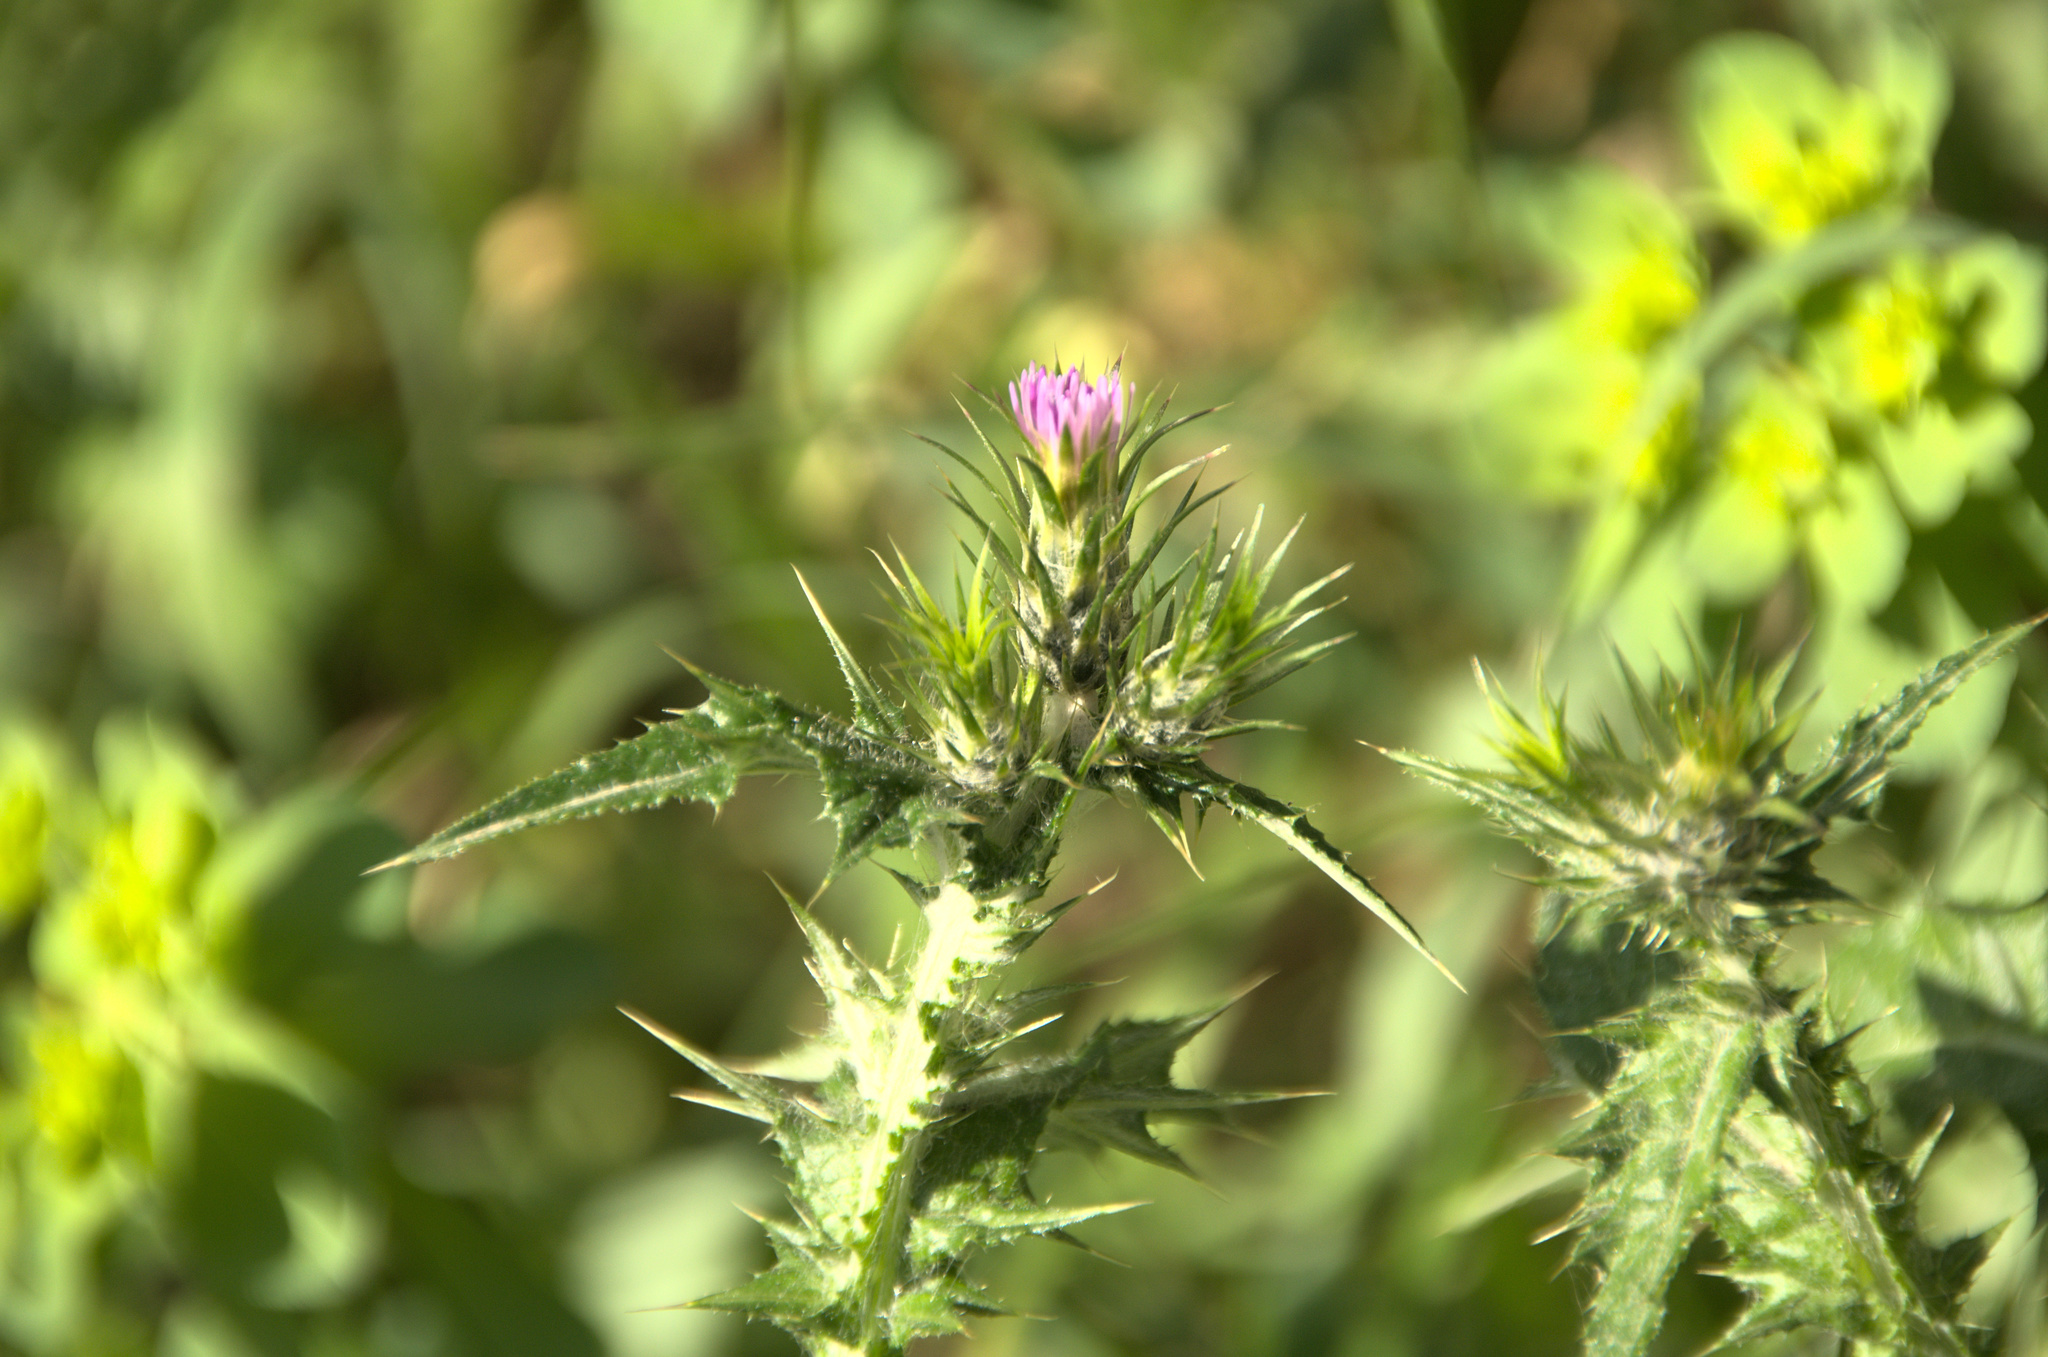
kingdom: Plantae
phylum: Tracheophyta
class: Magnoliopsida
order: Asterales
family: Asteraceae
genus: Carduus
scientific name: Carduus pycnocephalus
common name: Plymouth thistle
